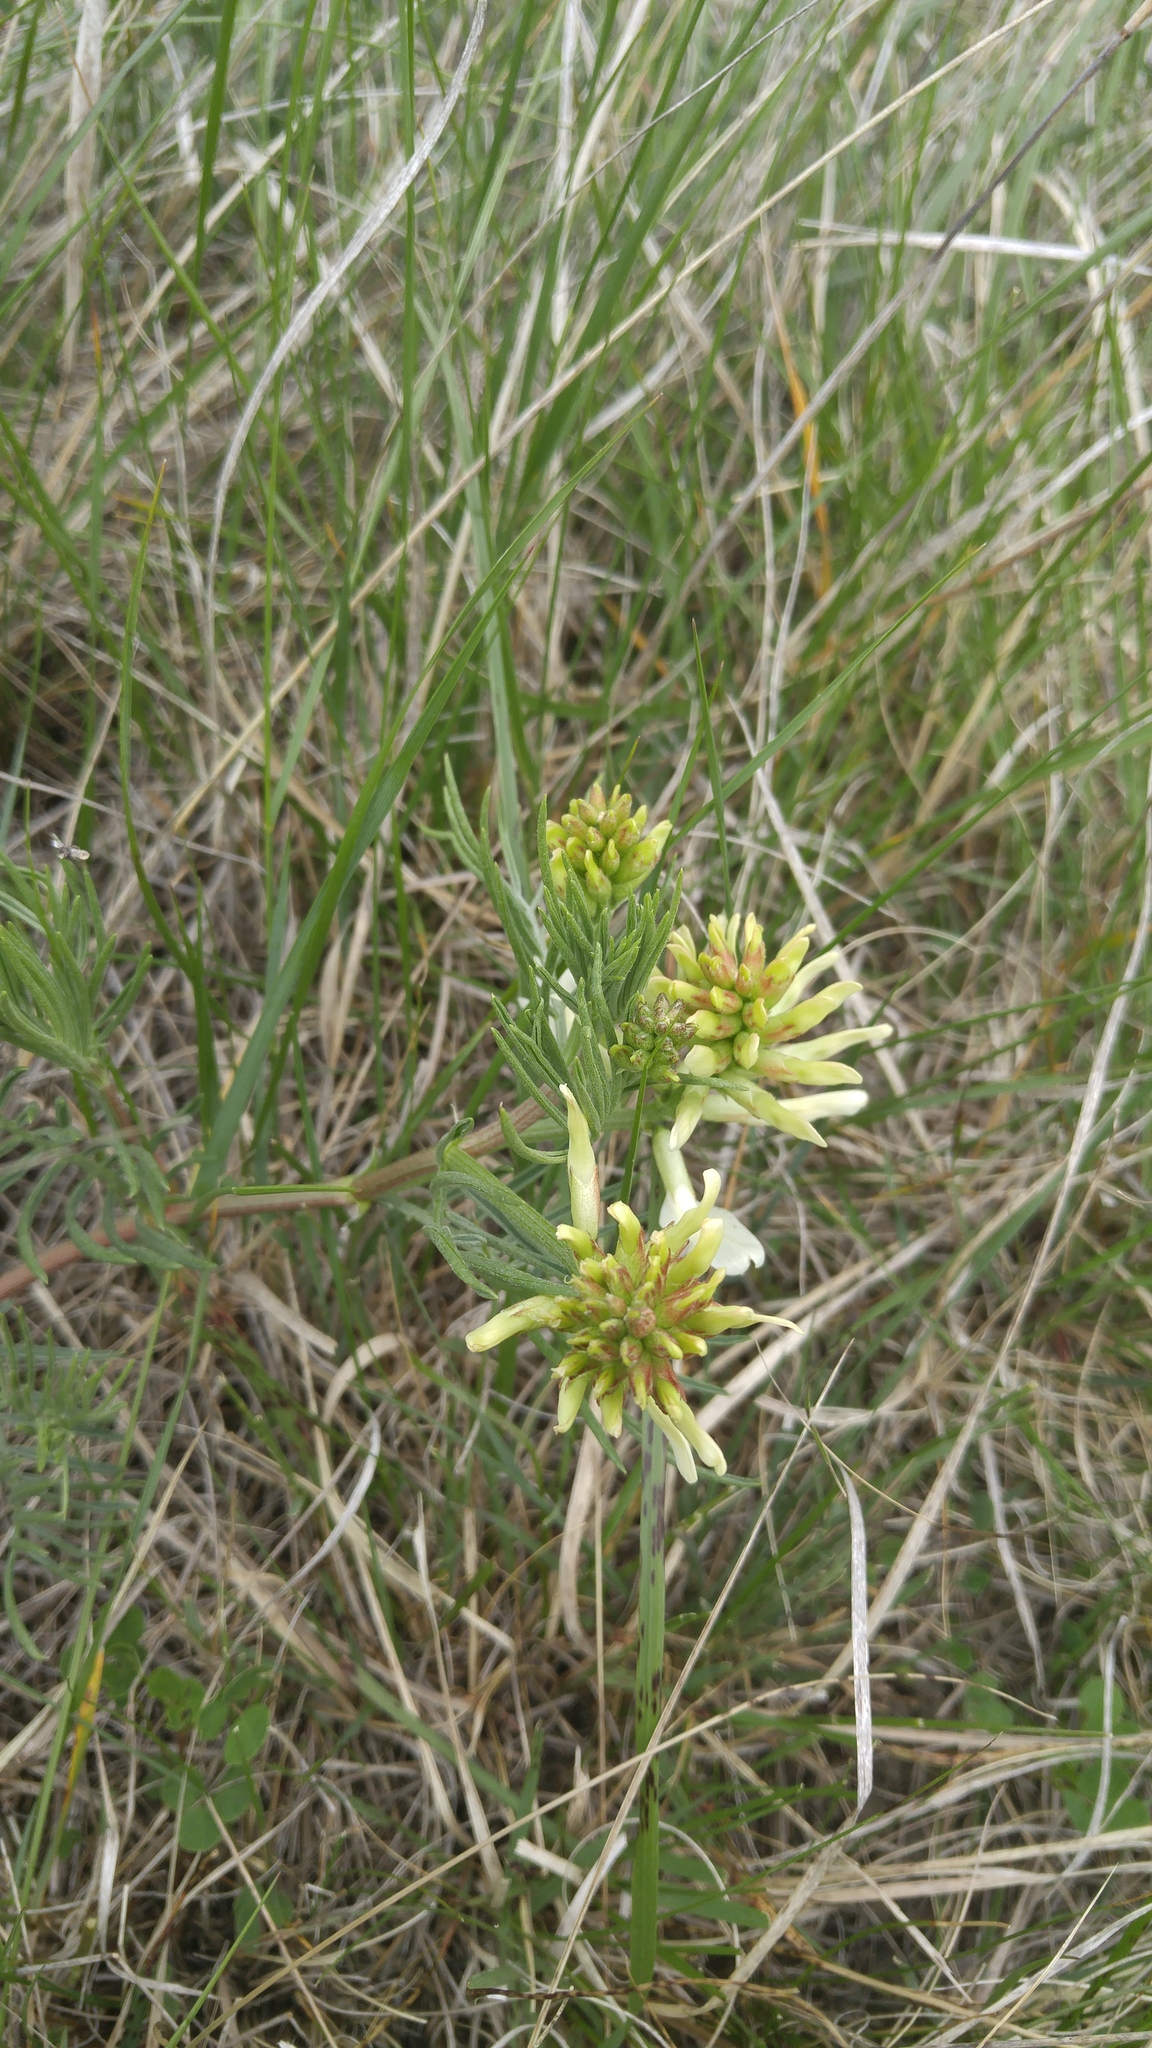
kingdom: Plantae
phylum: Tracheophyta
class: Magnoliopsida
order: Fabales
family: Fabaceae
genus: Astragalus
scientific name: Astragalus pectinatus
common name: Tine-leaf milk-vetch
